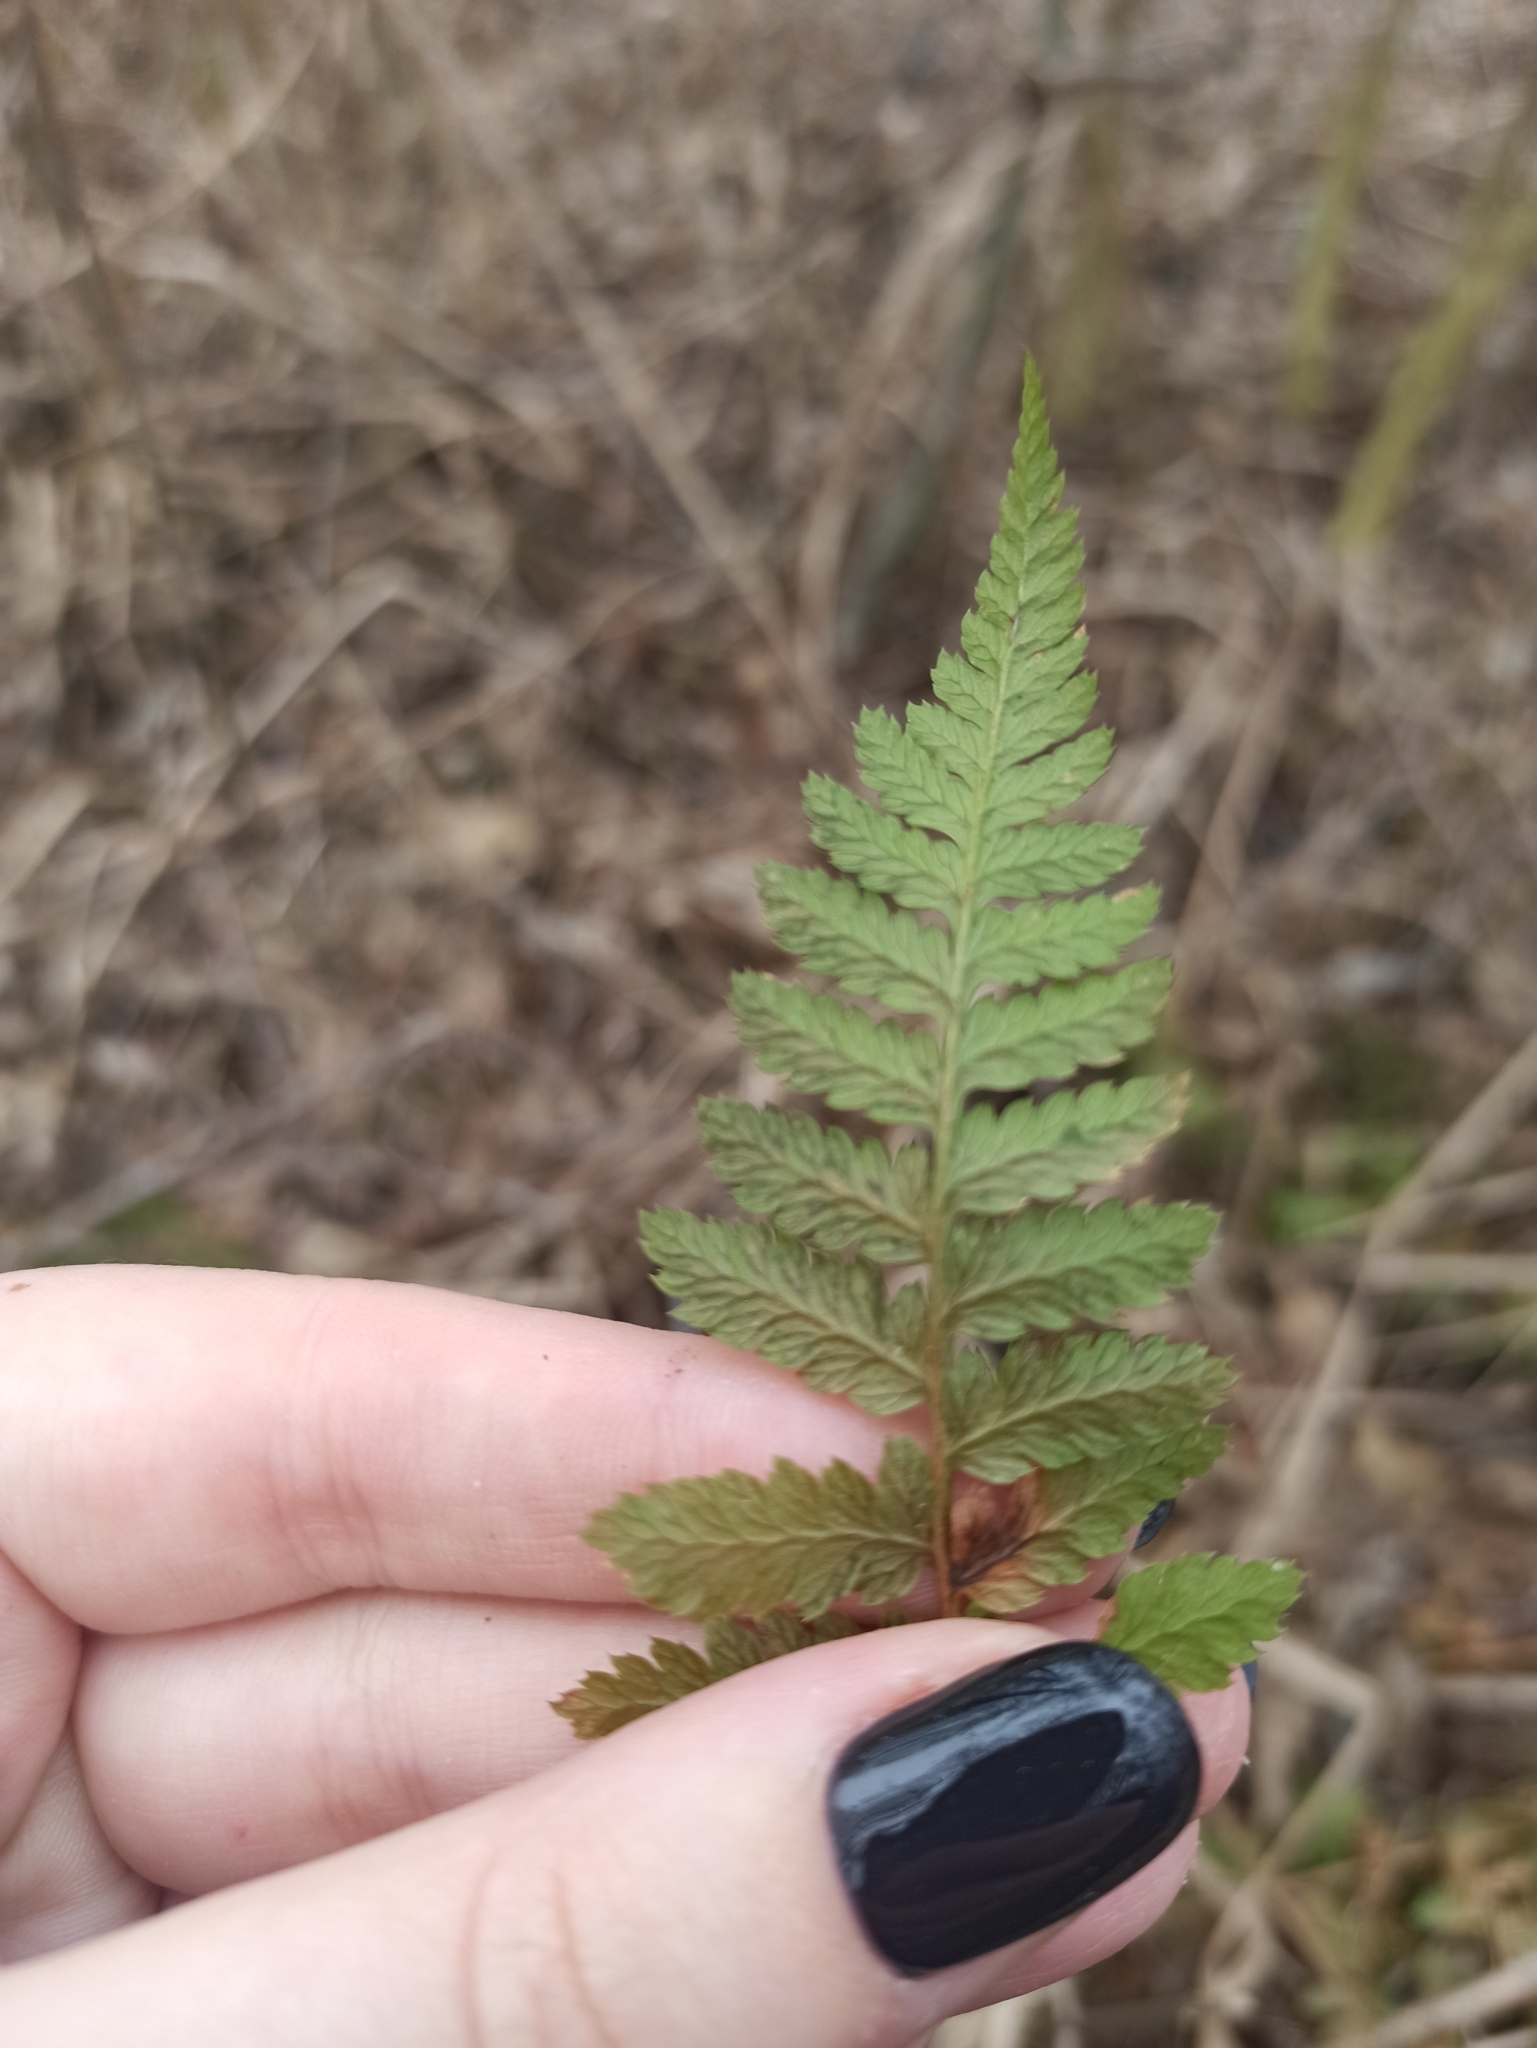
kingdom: Plantae
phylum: Tracheophyta
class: Polypodiopsida
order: Polypodiales
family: Dryopteridaceae
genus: Dryopteris
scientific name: Dryopteris carthusiana
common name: Narrow buckler-fern
